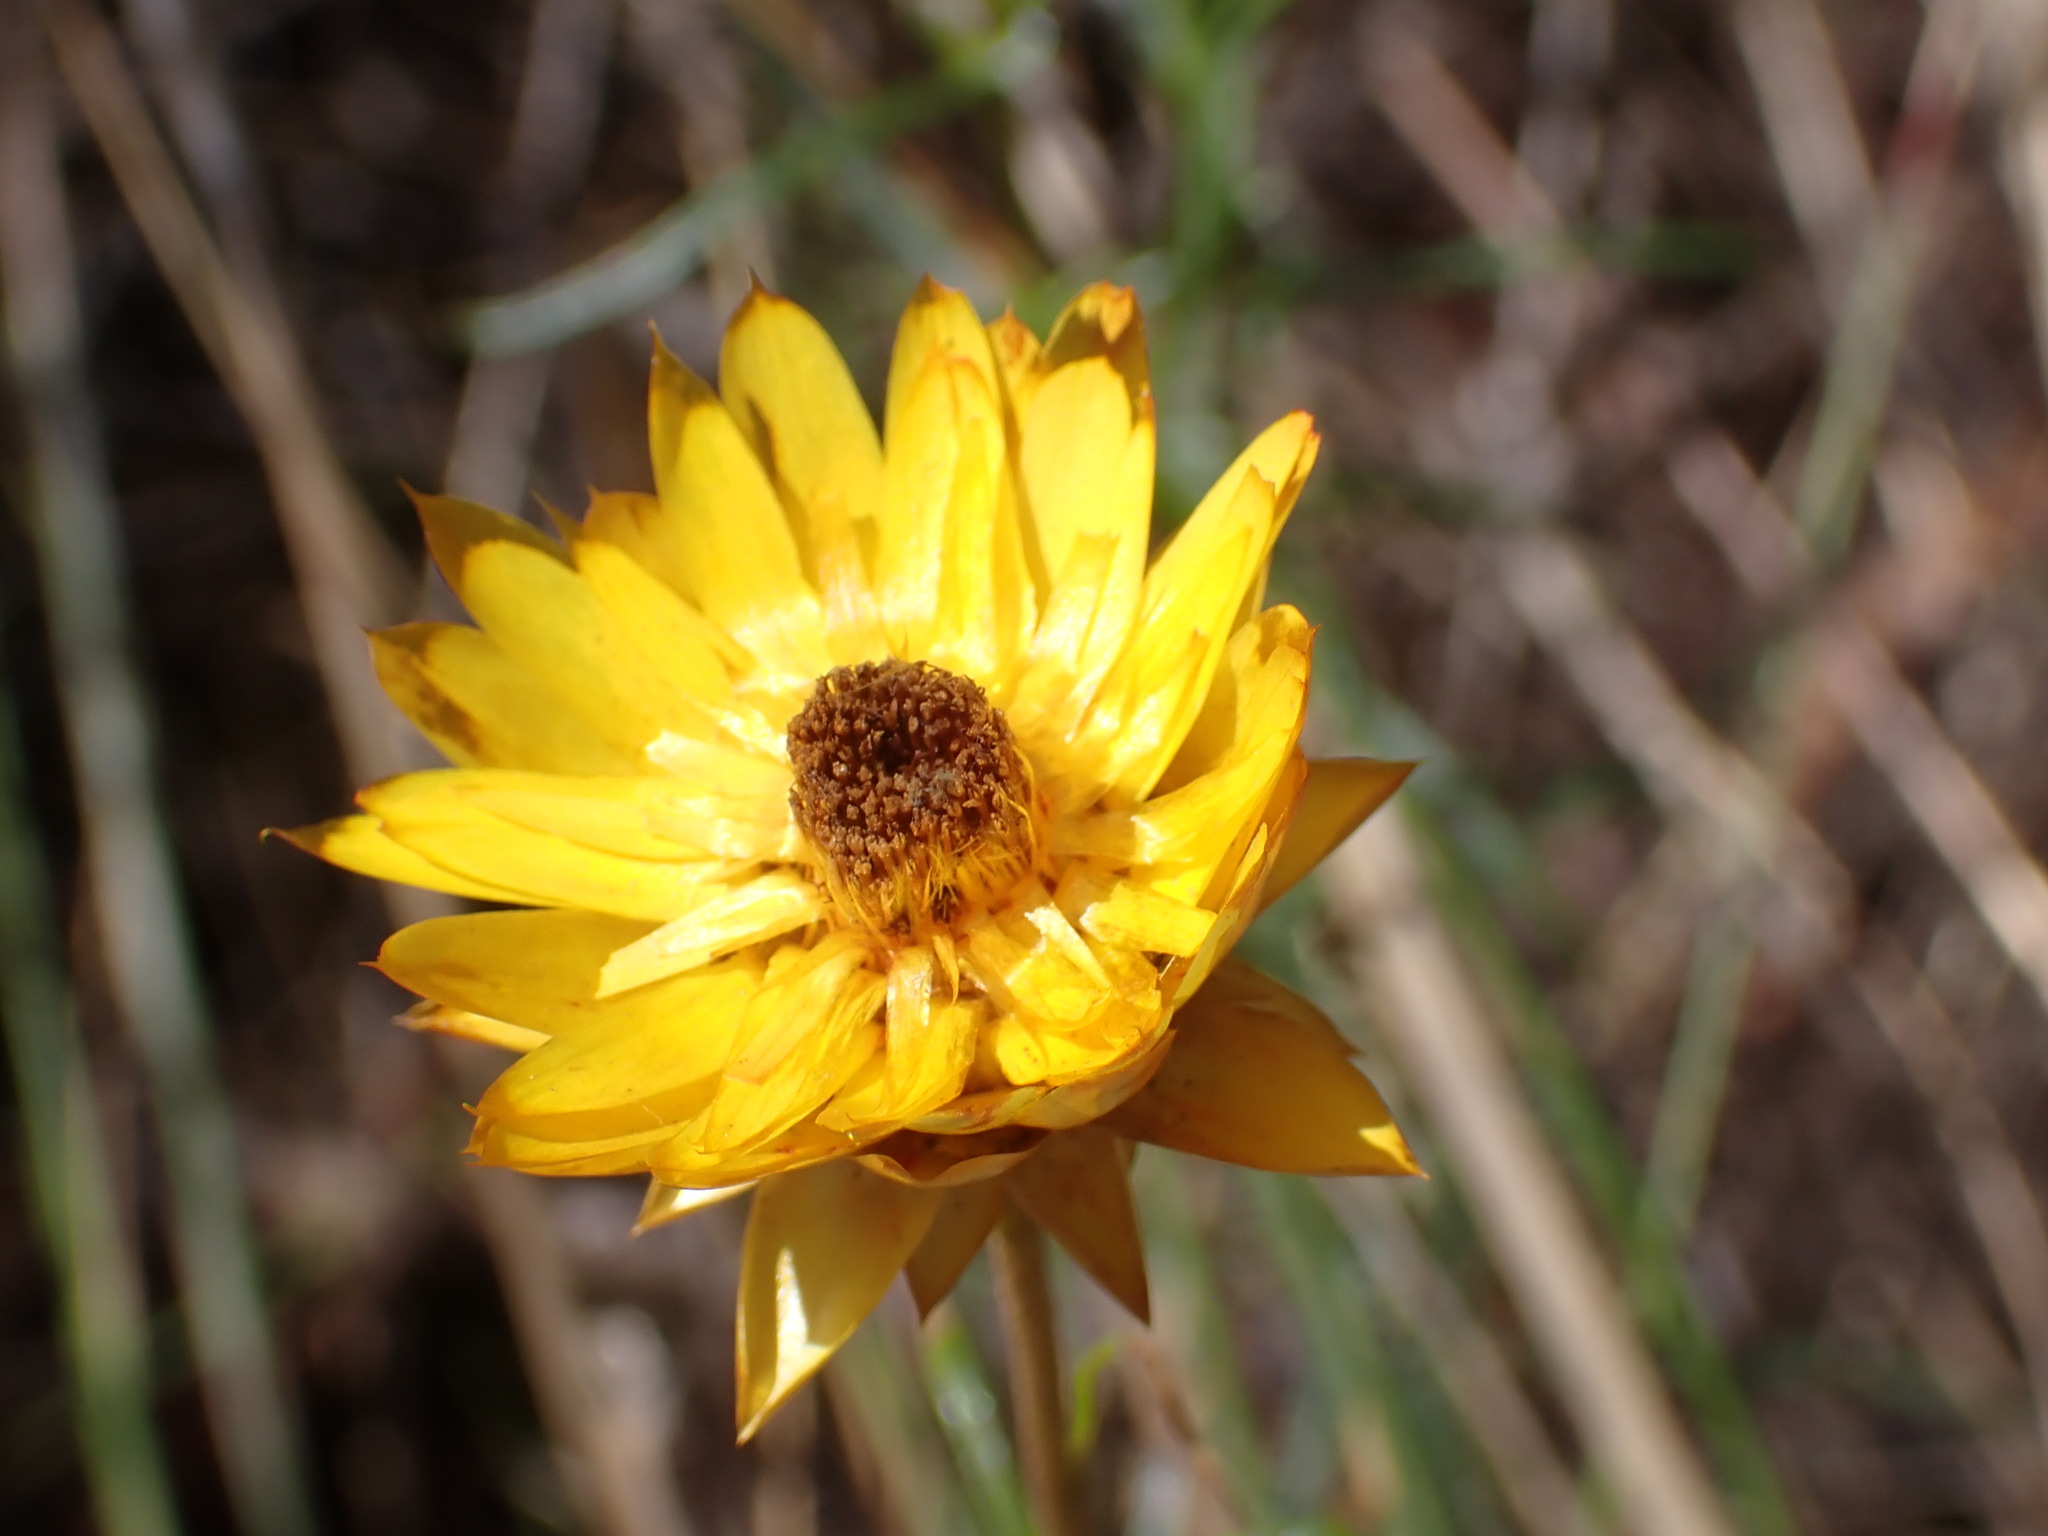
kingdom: Plantae
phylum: Tracheophyta
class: Magnoliopsida
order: Asterales
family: Asteraceae
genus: Xerochrysum
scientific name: Xerochrysum viscosum
